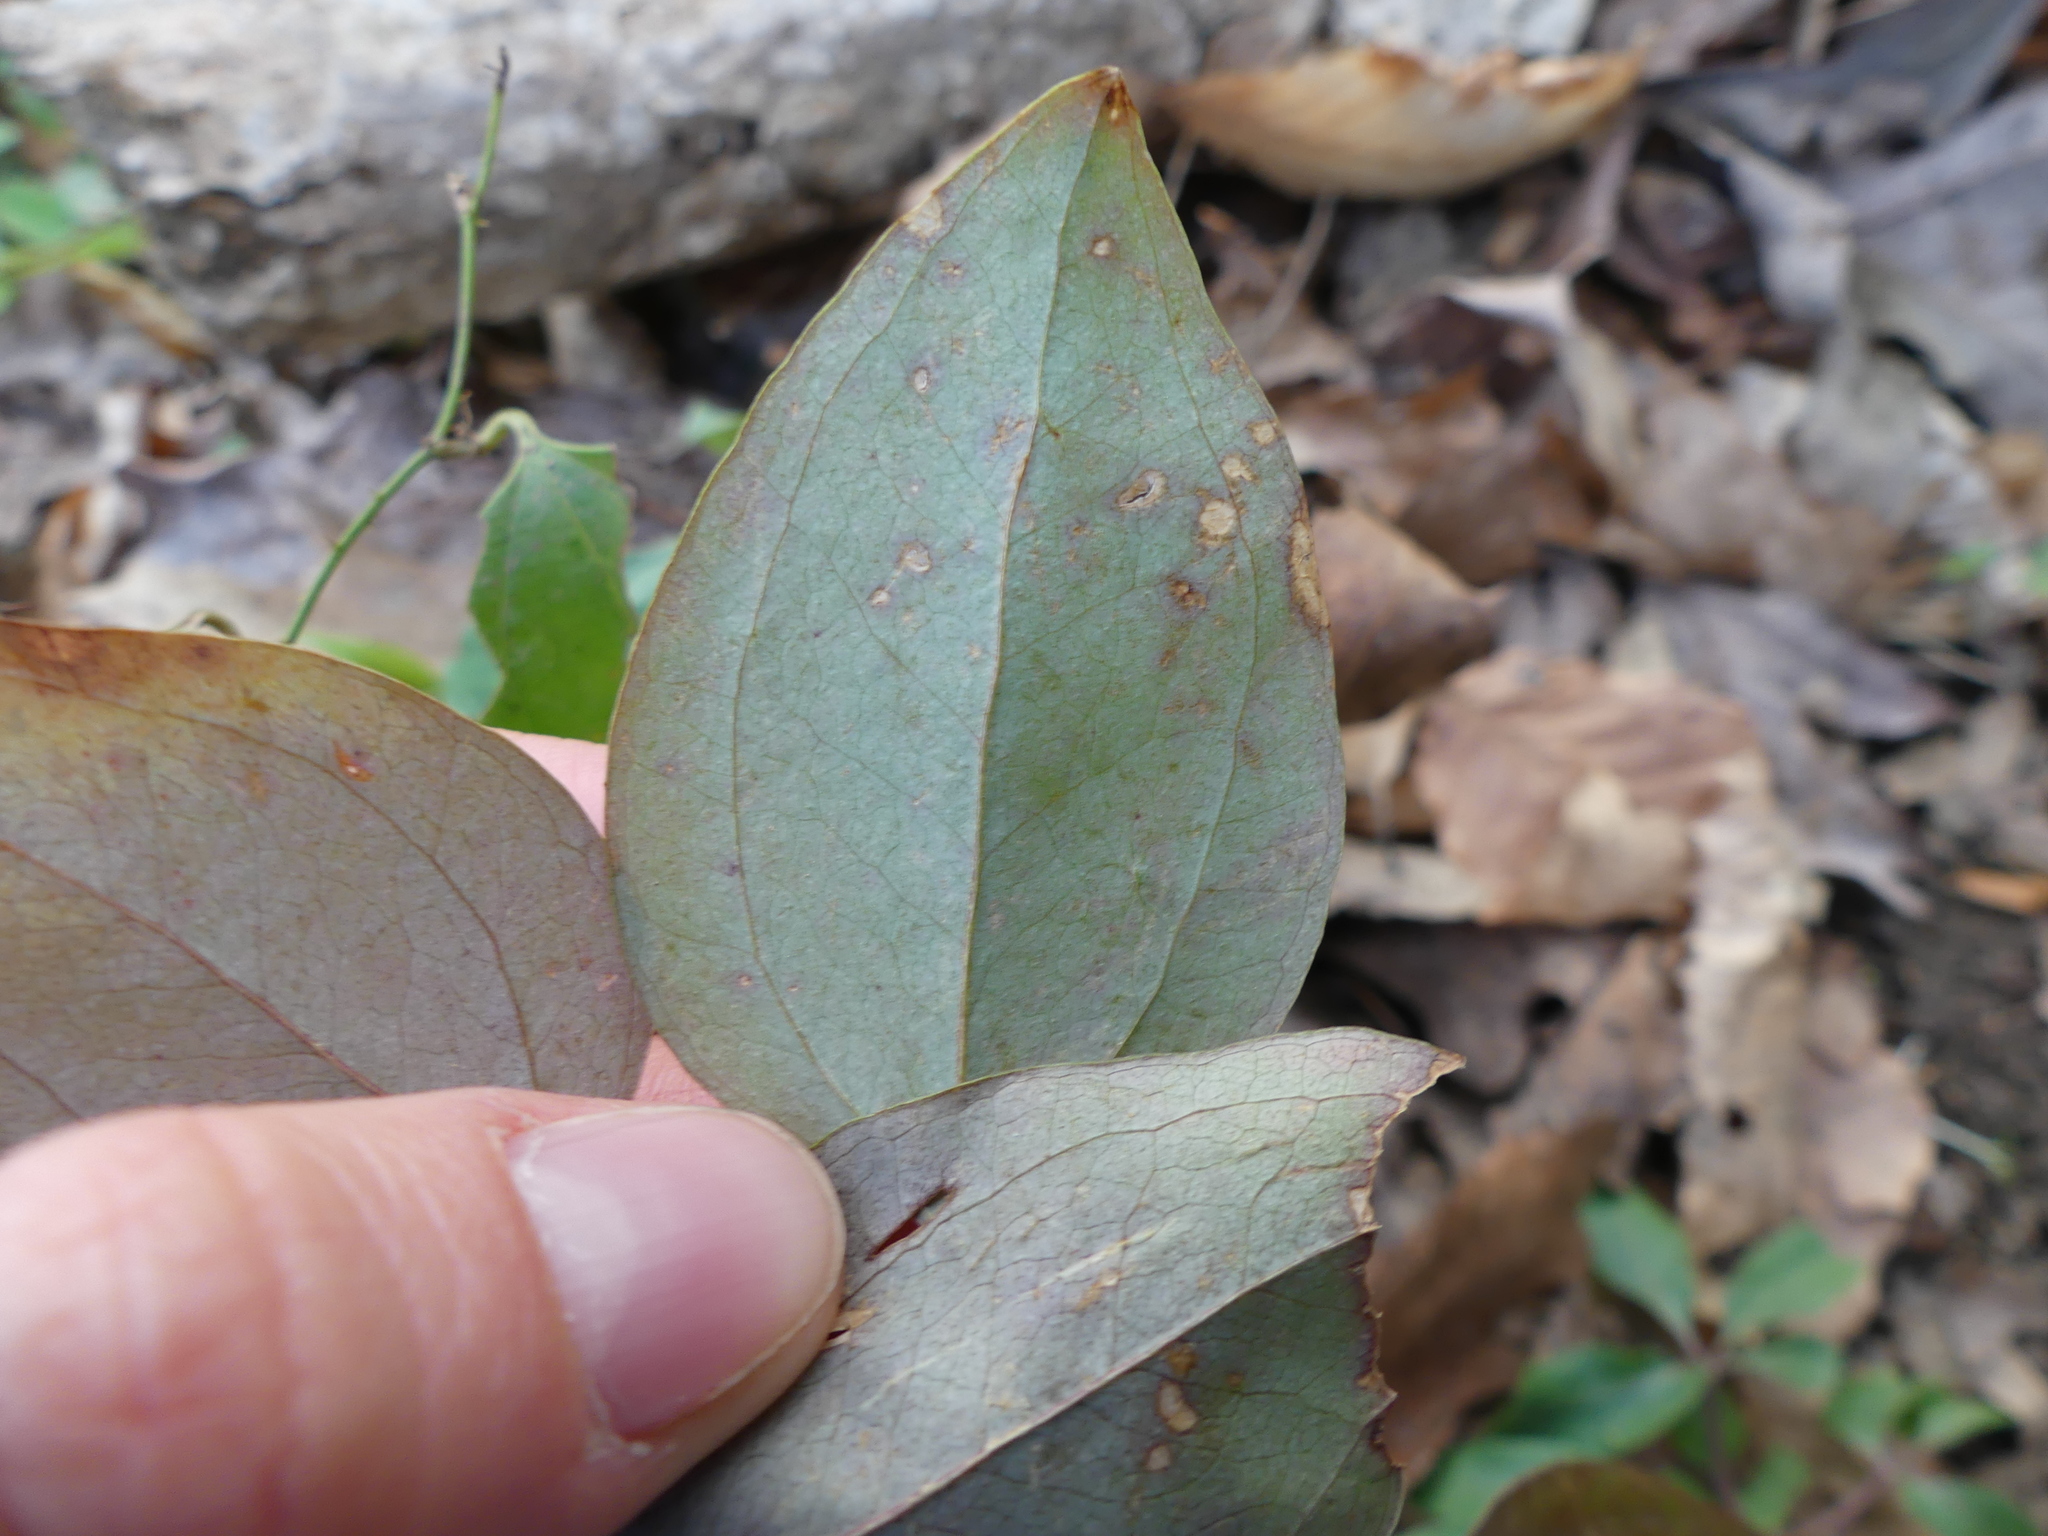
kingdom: Plantae
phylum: Tracheophyta
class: Liliopsida
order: Liliales
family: Smilacaceae
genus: Smilax
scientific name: Smilax glauca
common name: Cat greenbrier
